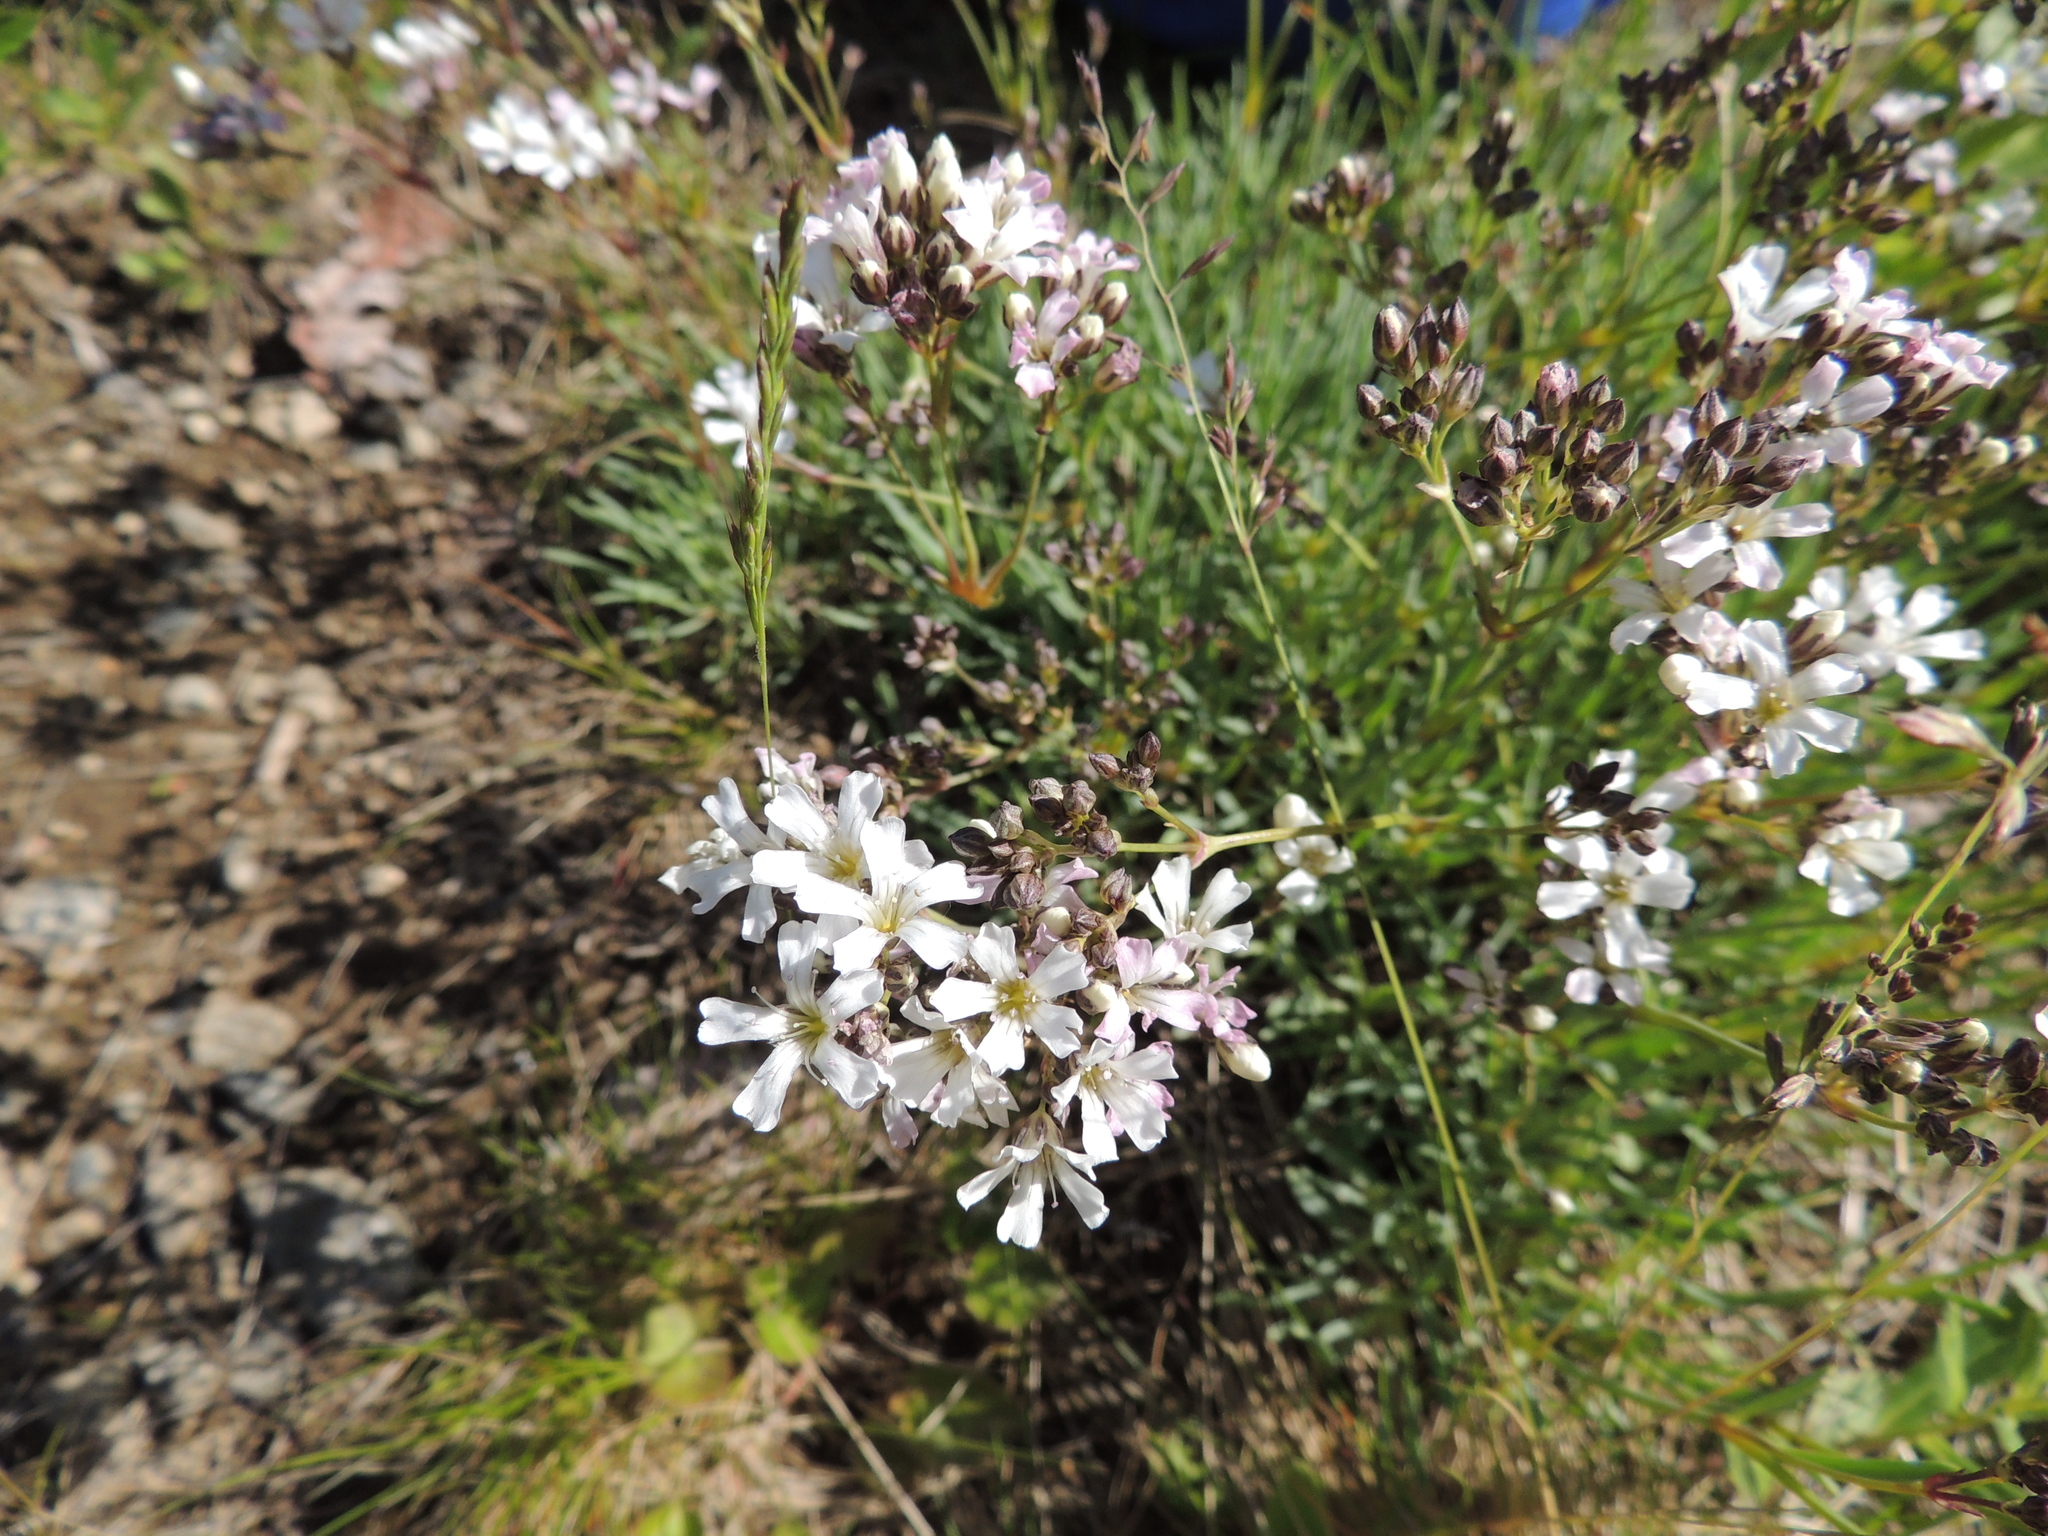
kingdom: Plantae
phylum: Tracheophyta
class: Magnoliopsida
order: Caryophyllales
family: Caryophyllaceae
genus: Gypsophila
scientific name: Gypsophila uralensis
